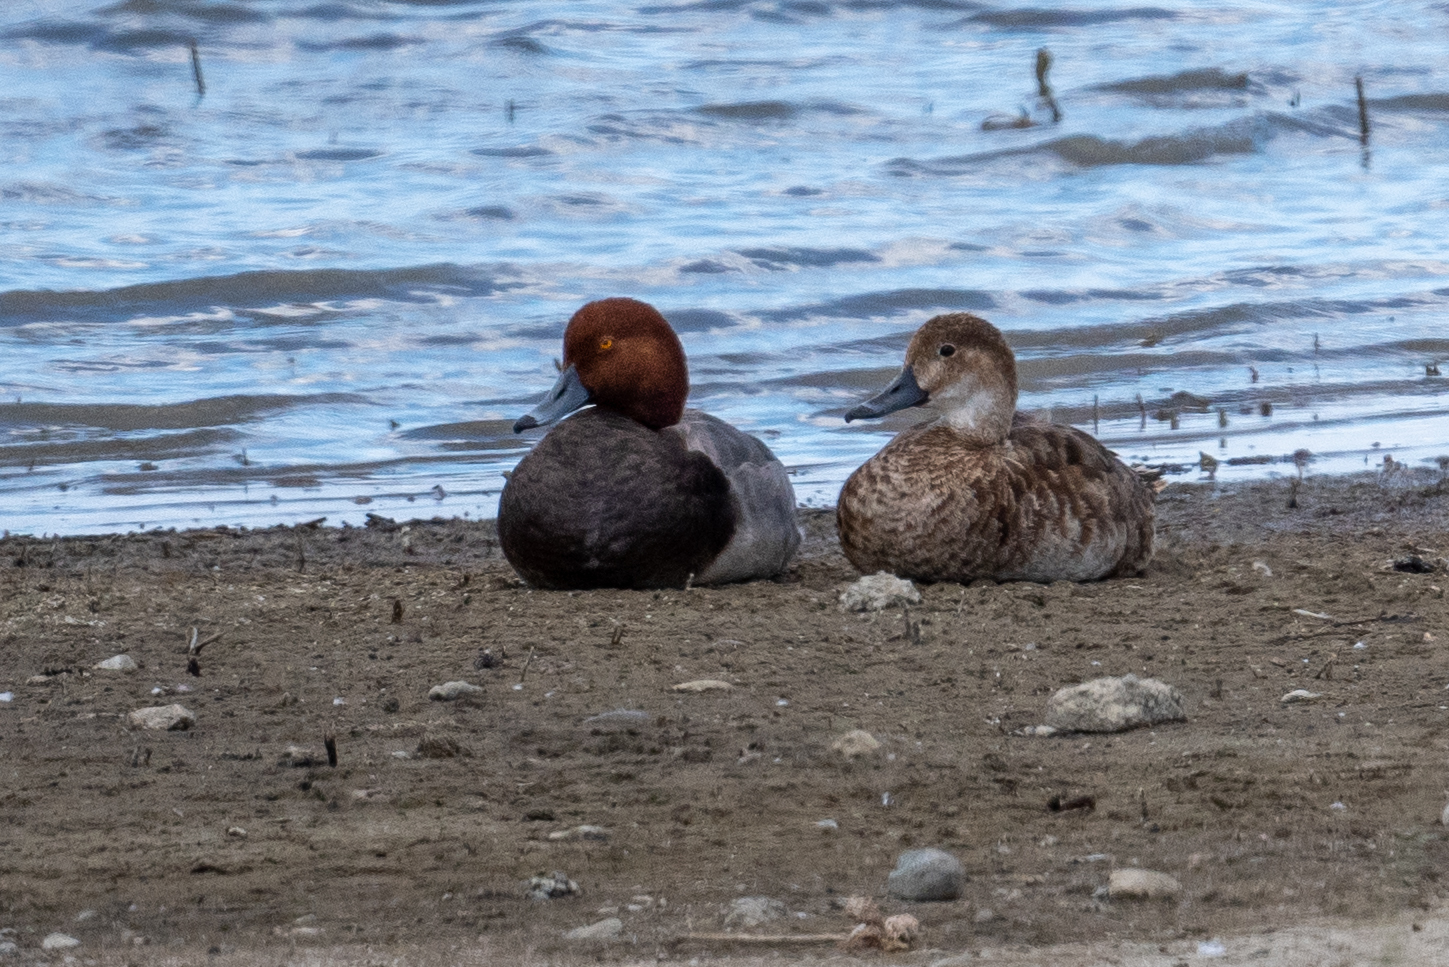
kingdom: Animalia
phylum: Chordata
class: Aves
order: Anseriformes
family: Anatidae
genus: Aythya
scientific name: Aythya americana
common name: Redhead
